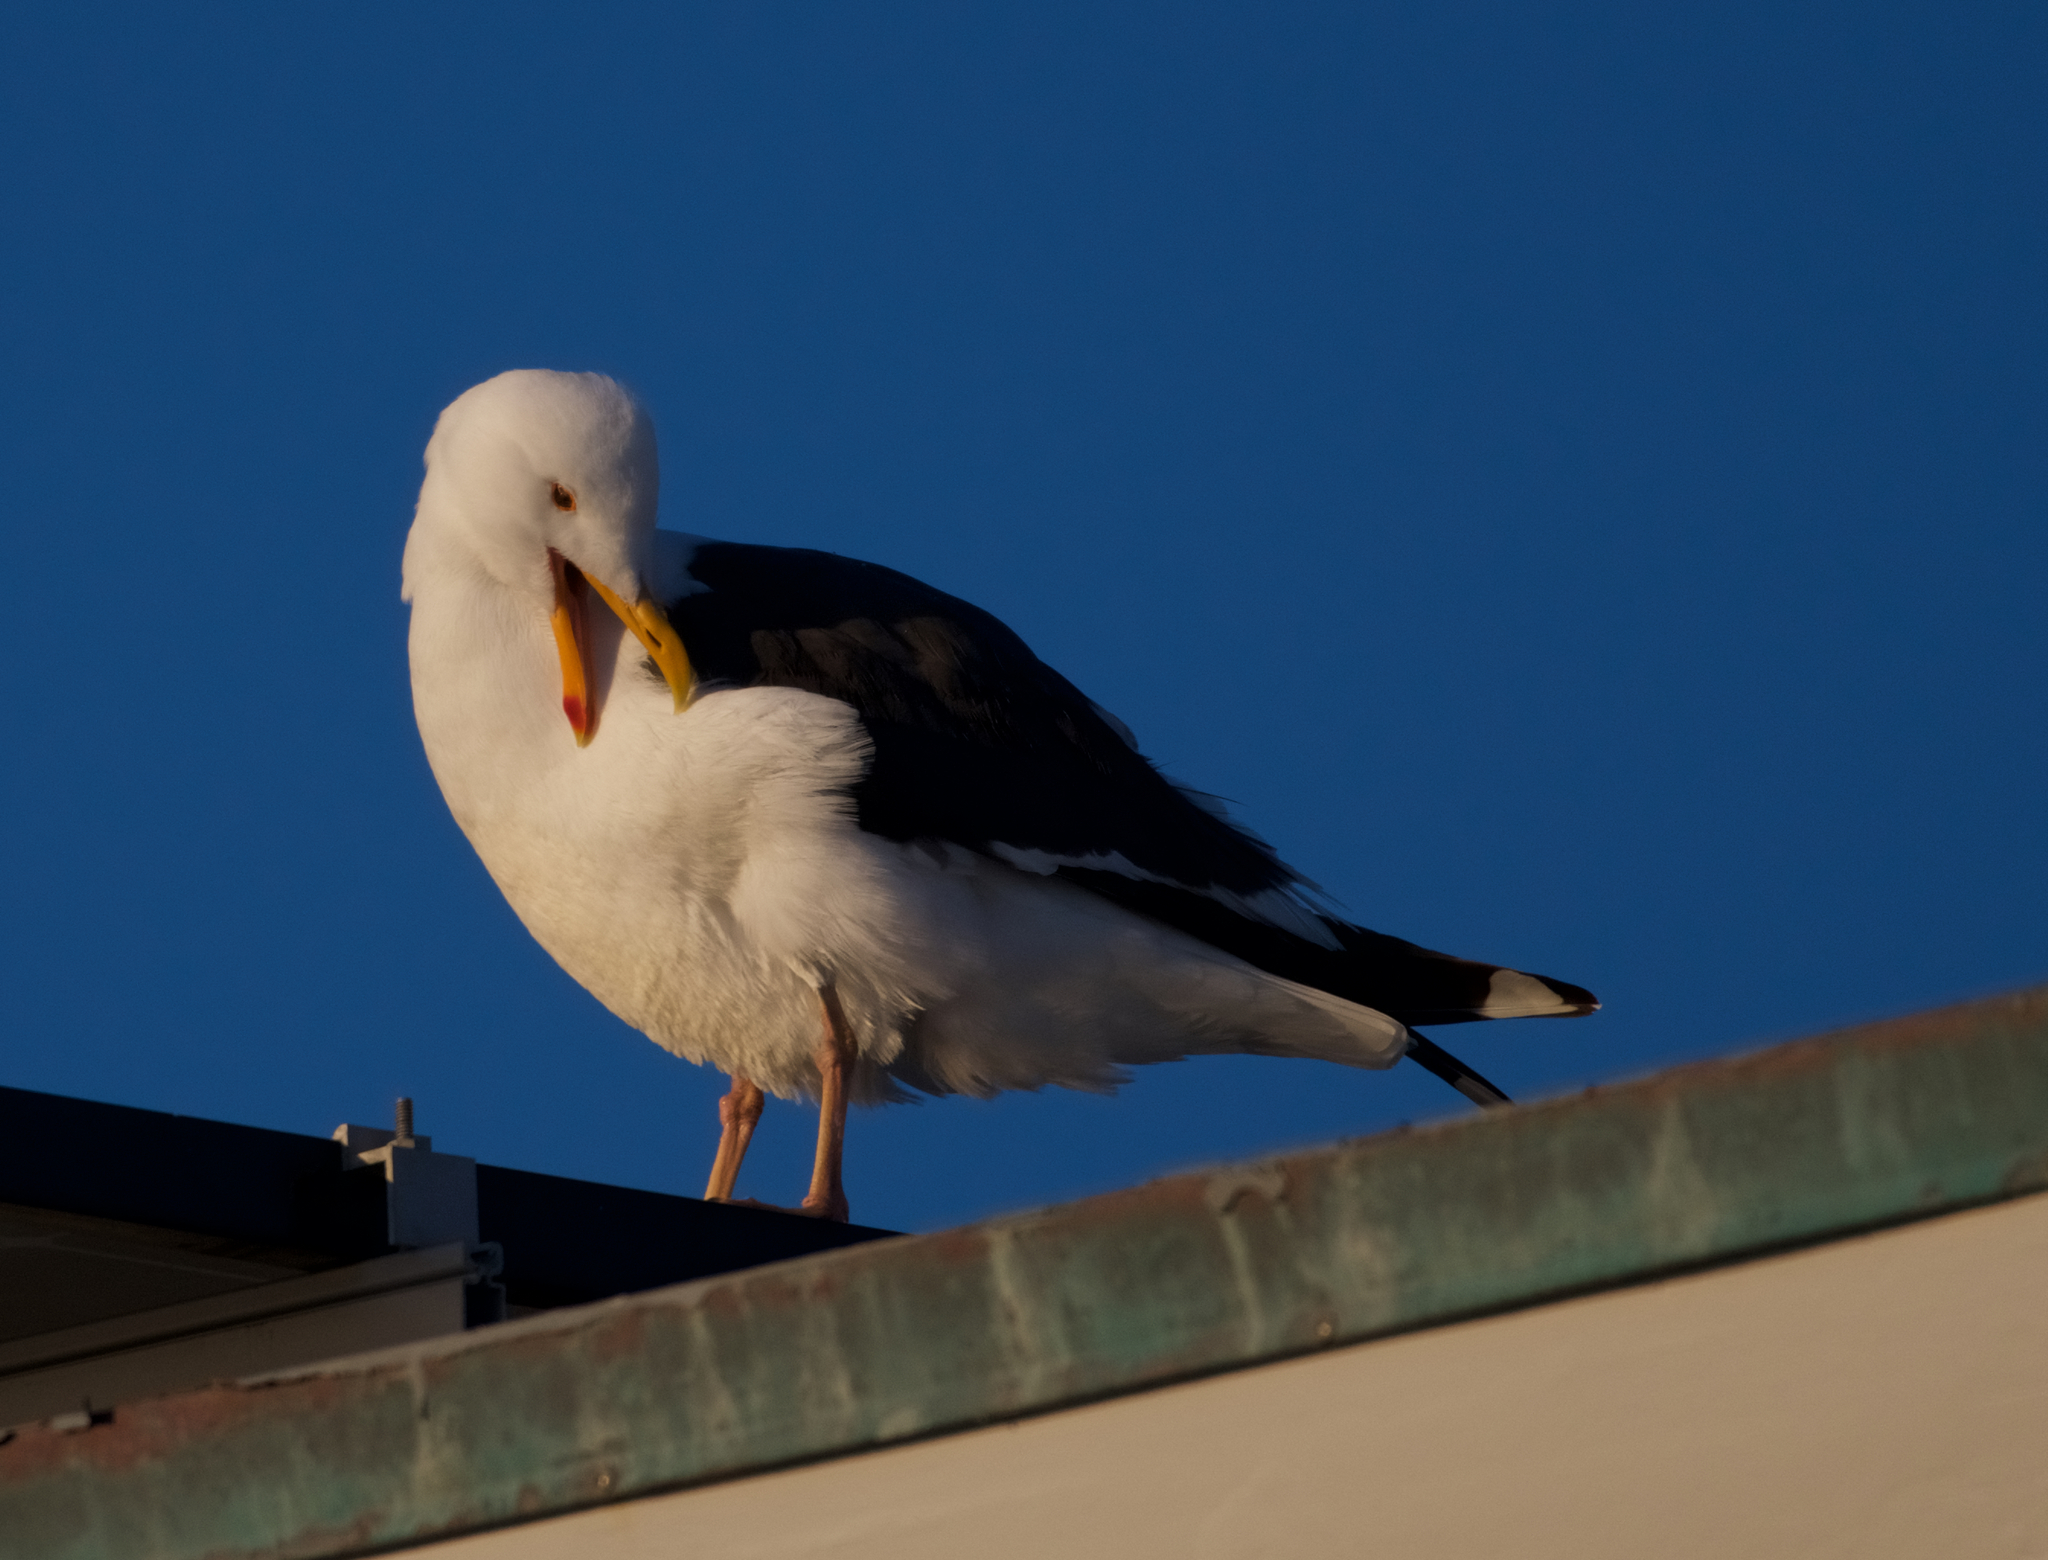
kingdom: Animalia
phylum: Chordata
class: Aves
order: Charadriiformes
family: Laridae
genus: Larus
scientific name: Larus occidentalis
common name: Western gull
